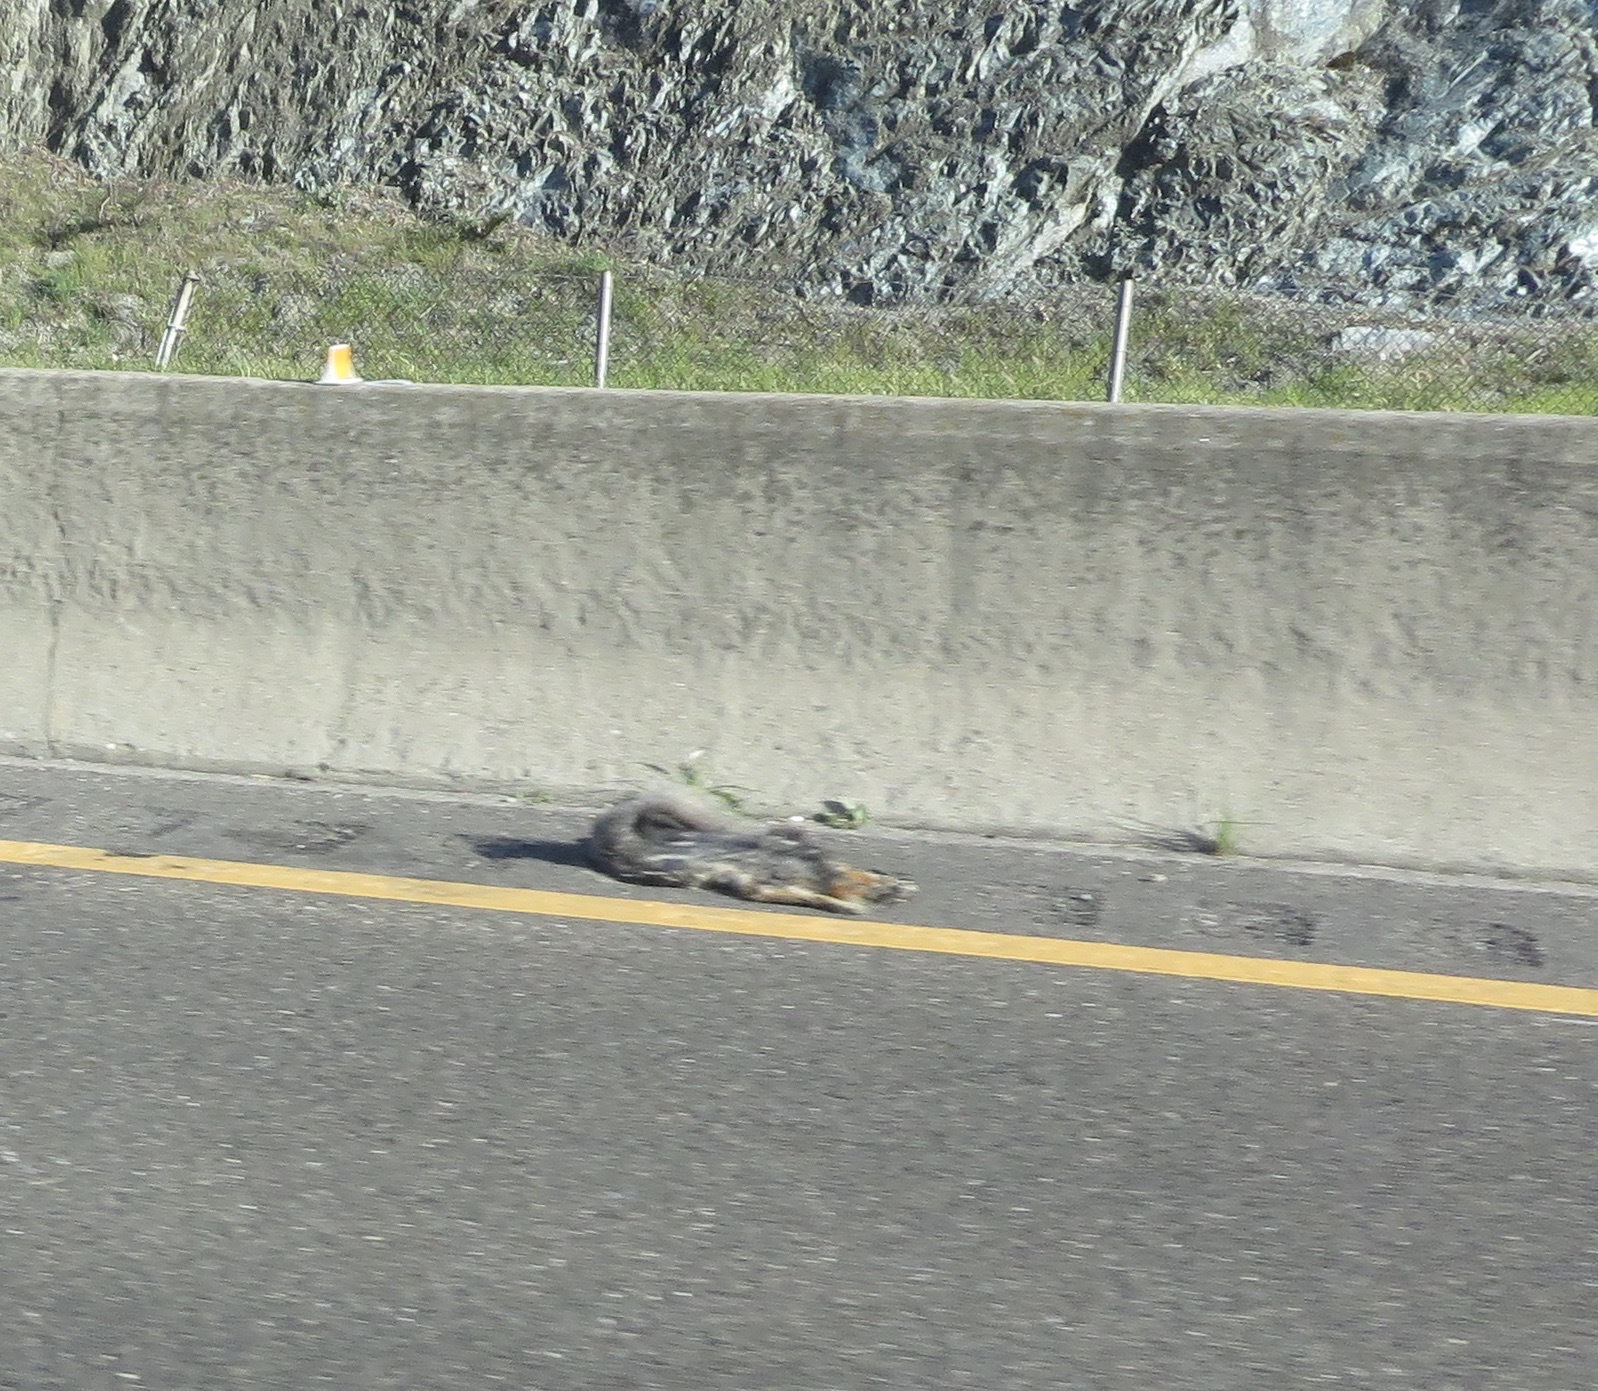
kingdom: Animalia
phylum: Chordata
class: Mammalia
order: Carnivora
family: Canidae
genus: Urocyon
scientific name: Urocyon cinereoargenteus
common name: Gray fox
